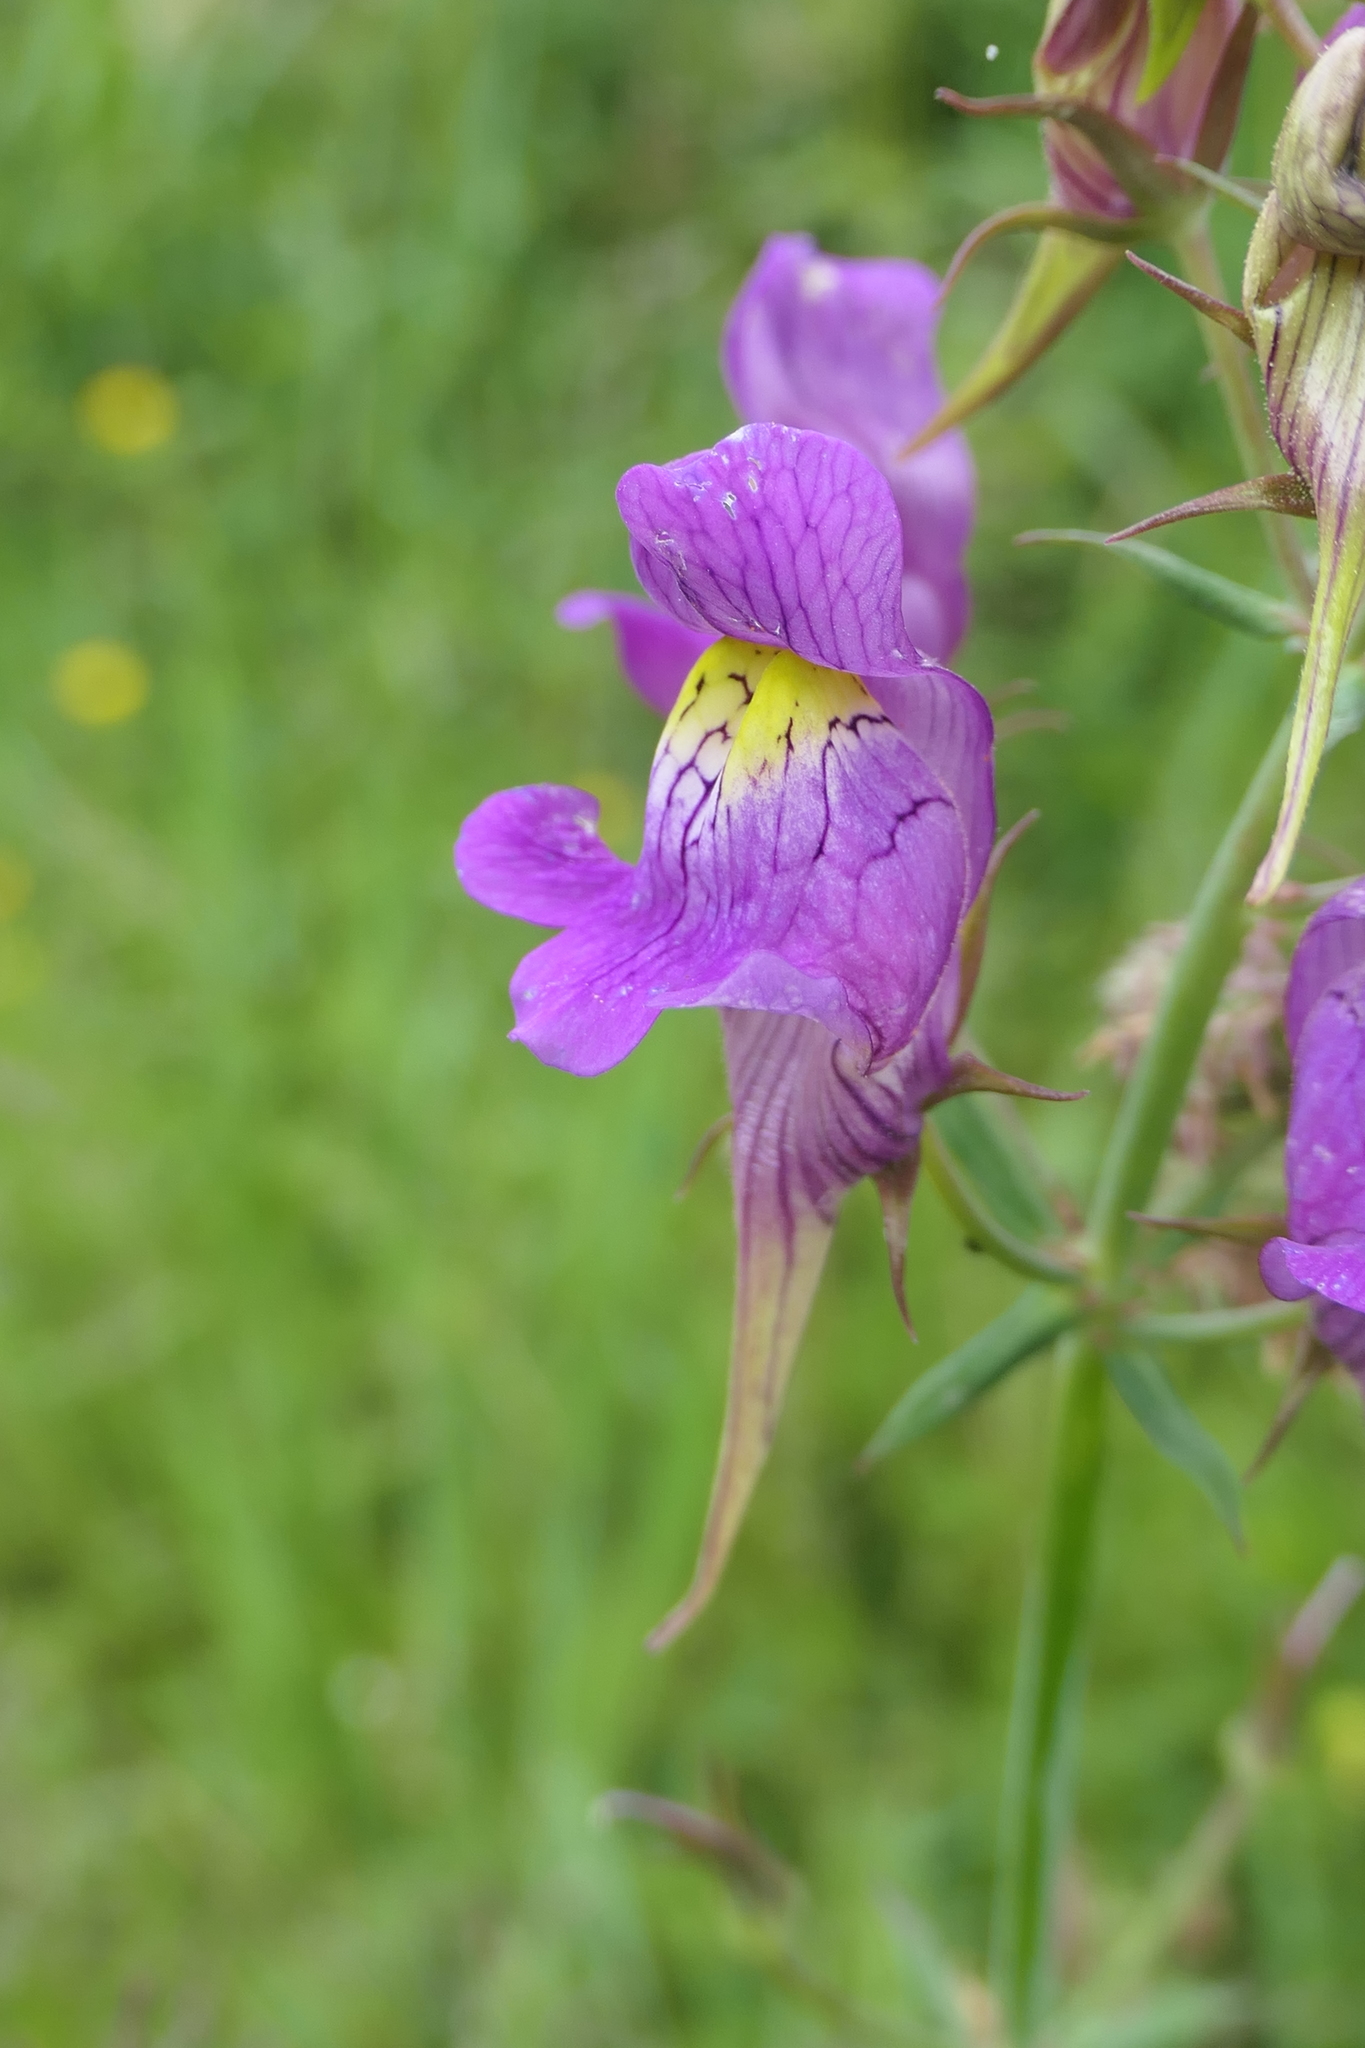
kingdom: Plantae
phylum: Tracheophyta
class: Magnoliopsida
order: Lamiales
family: Plantaginaceae
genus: Linaria
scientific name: Linaria triornithophora
